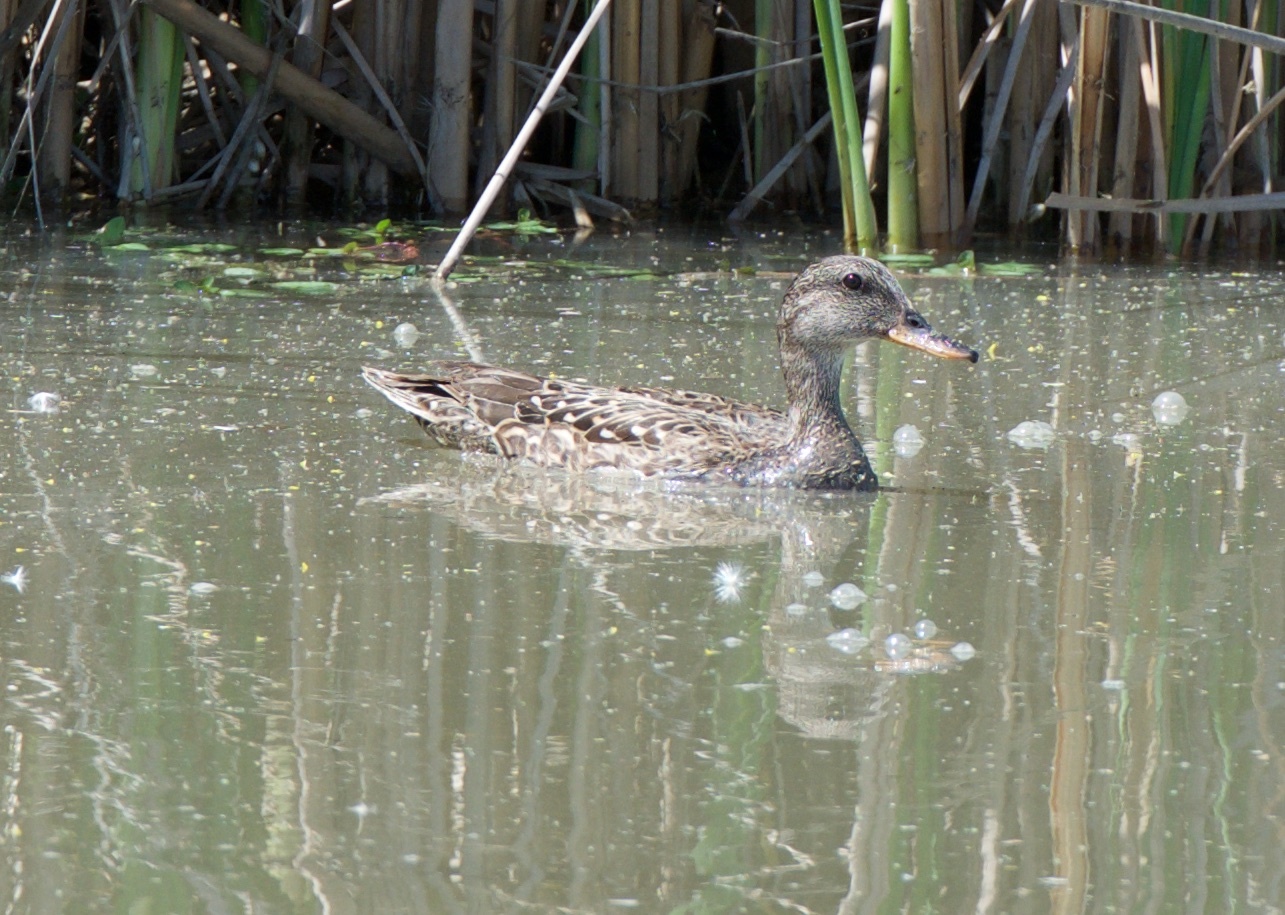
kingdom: Animalia
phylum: Chordata
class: Aves
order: Anseriformes
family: Anatidae
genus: Mareca
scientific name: Mareca strepera
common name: Gadwall
